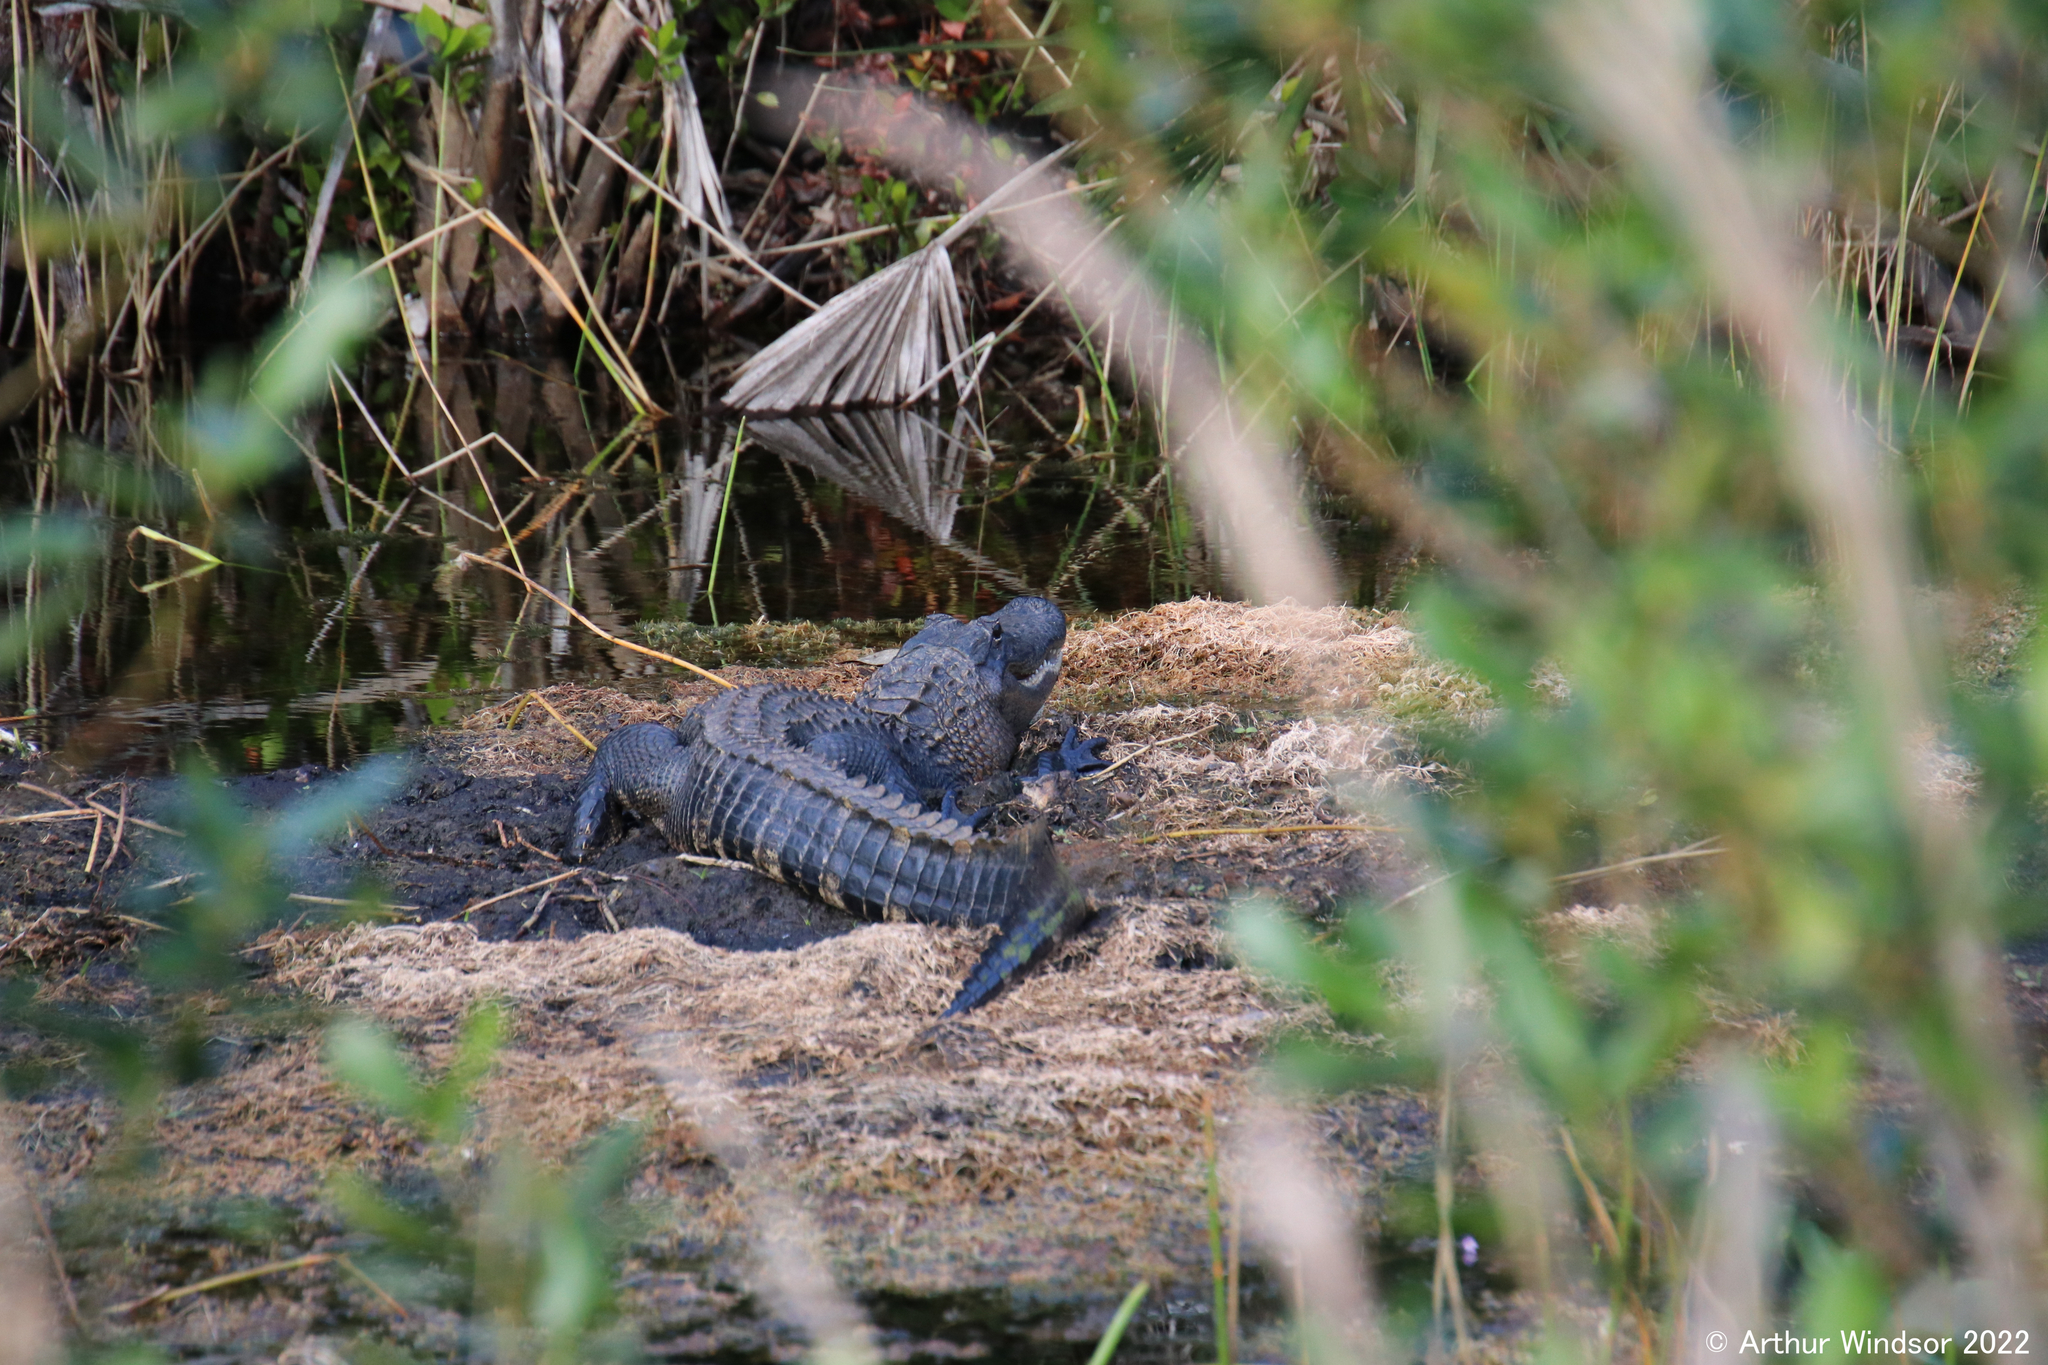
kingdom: Animalia
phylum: Chordata
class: Crocodylia
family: Alligatoridae
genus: Alligator
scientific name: Alligator mississippiensis
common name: American alligator
